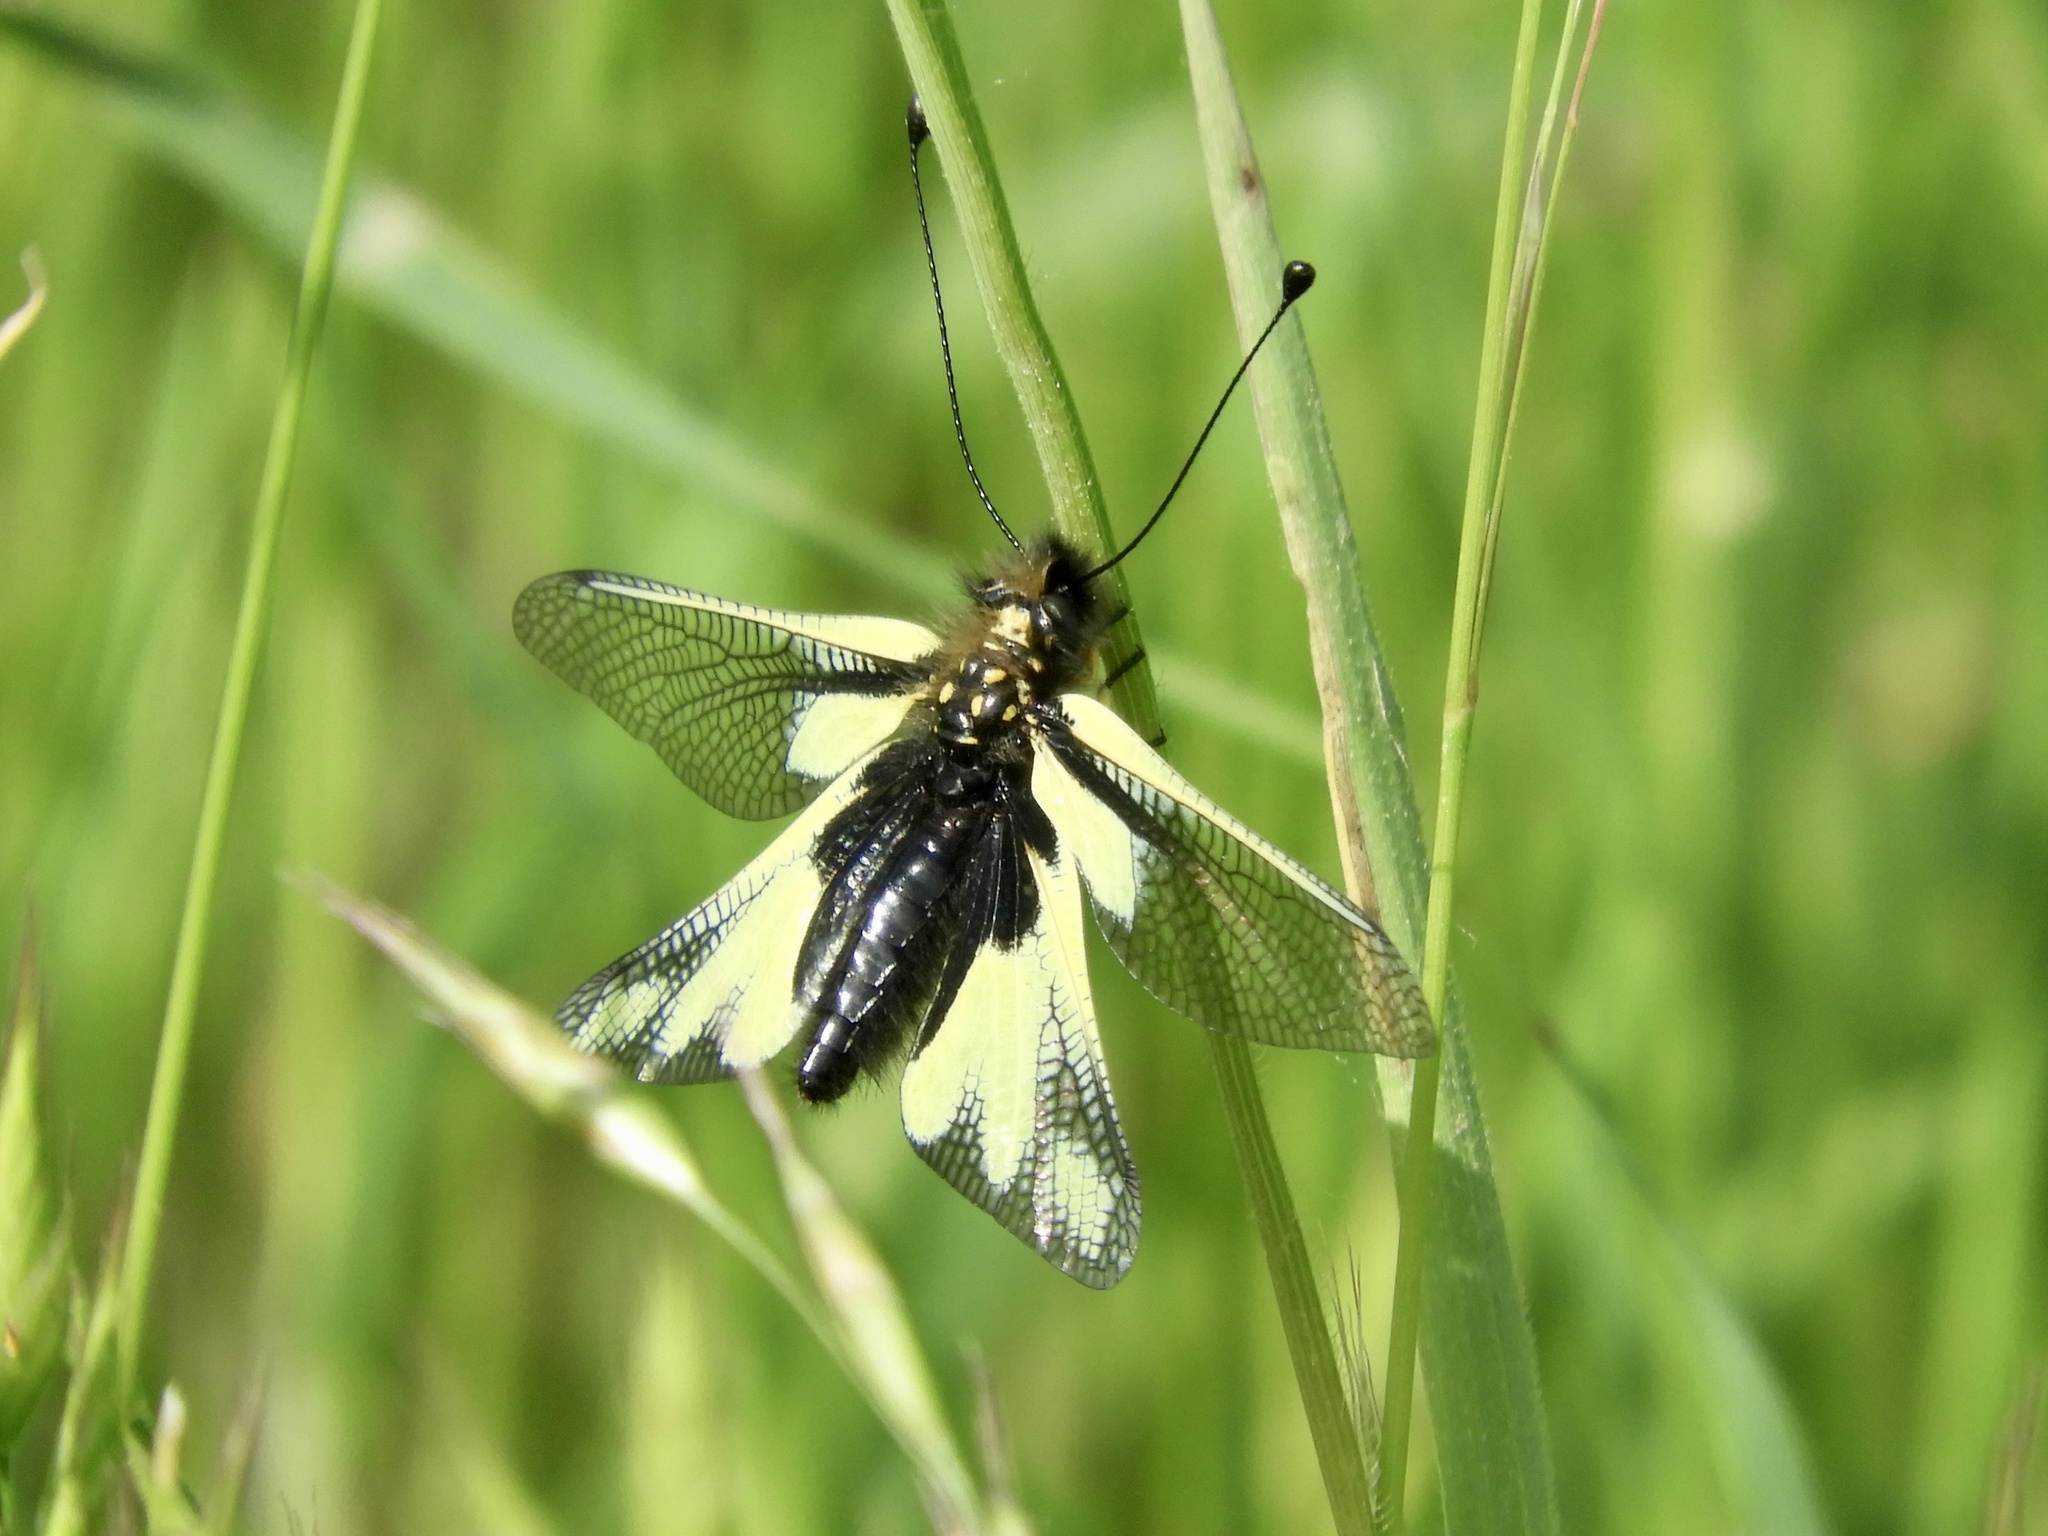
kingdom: Animalia
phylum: Arthropoda
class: Insecta
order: Neuroptera
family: Ascalaphidae
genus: Libelloides
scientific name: Libelloides coccajus
